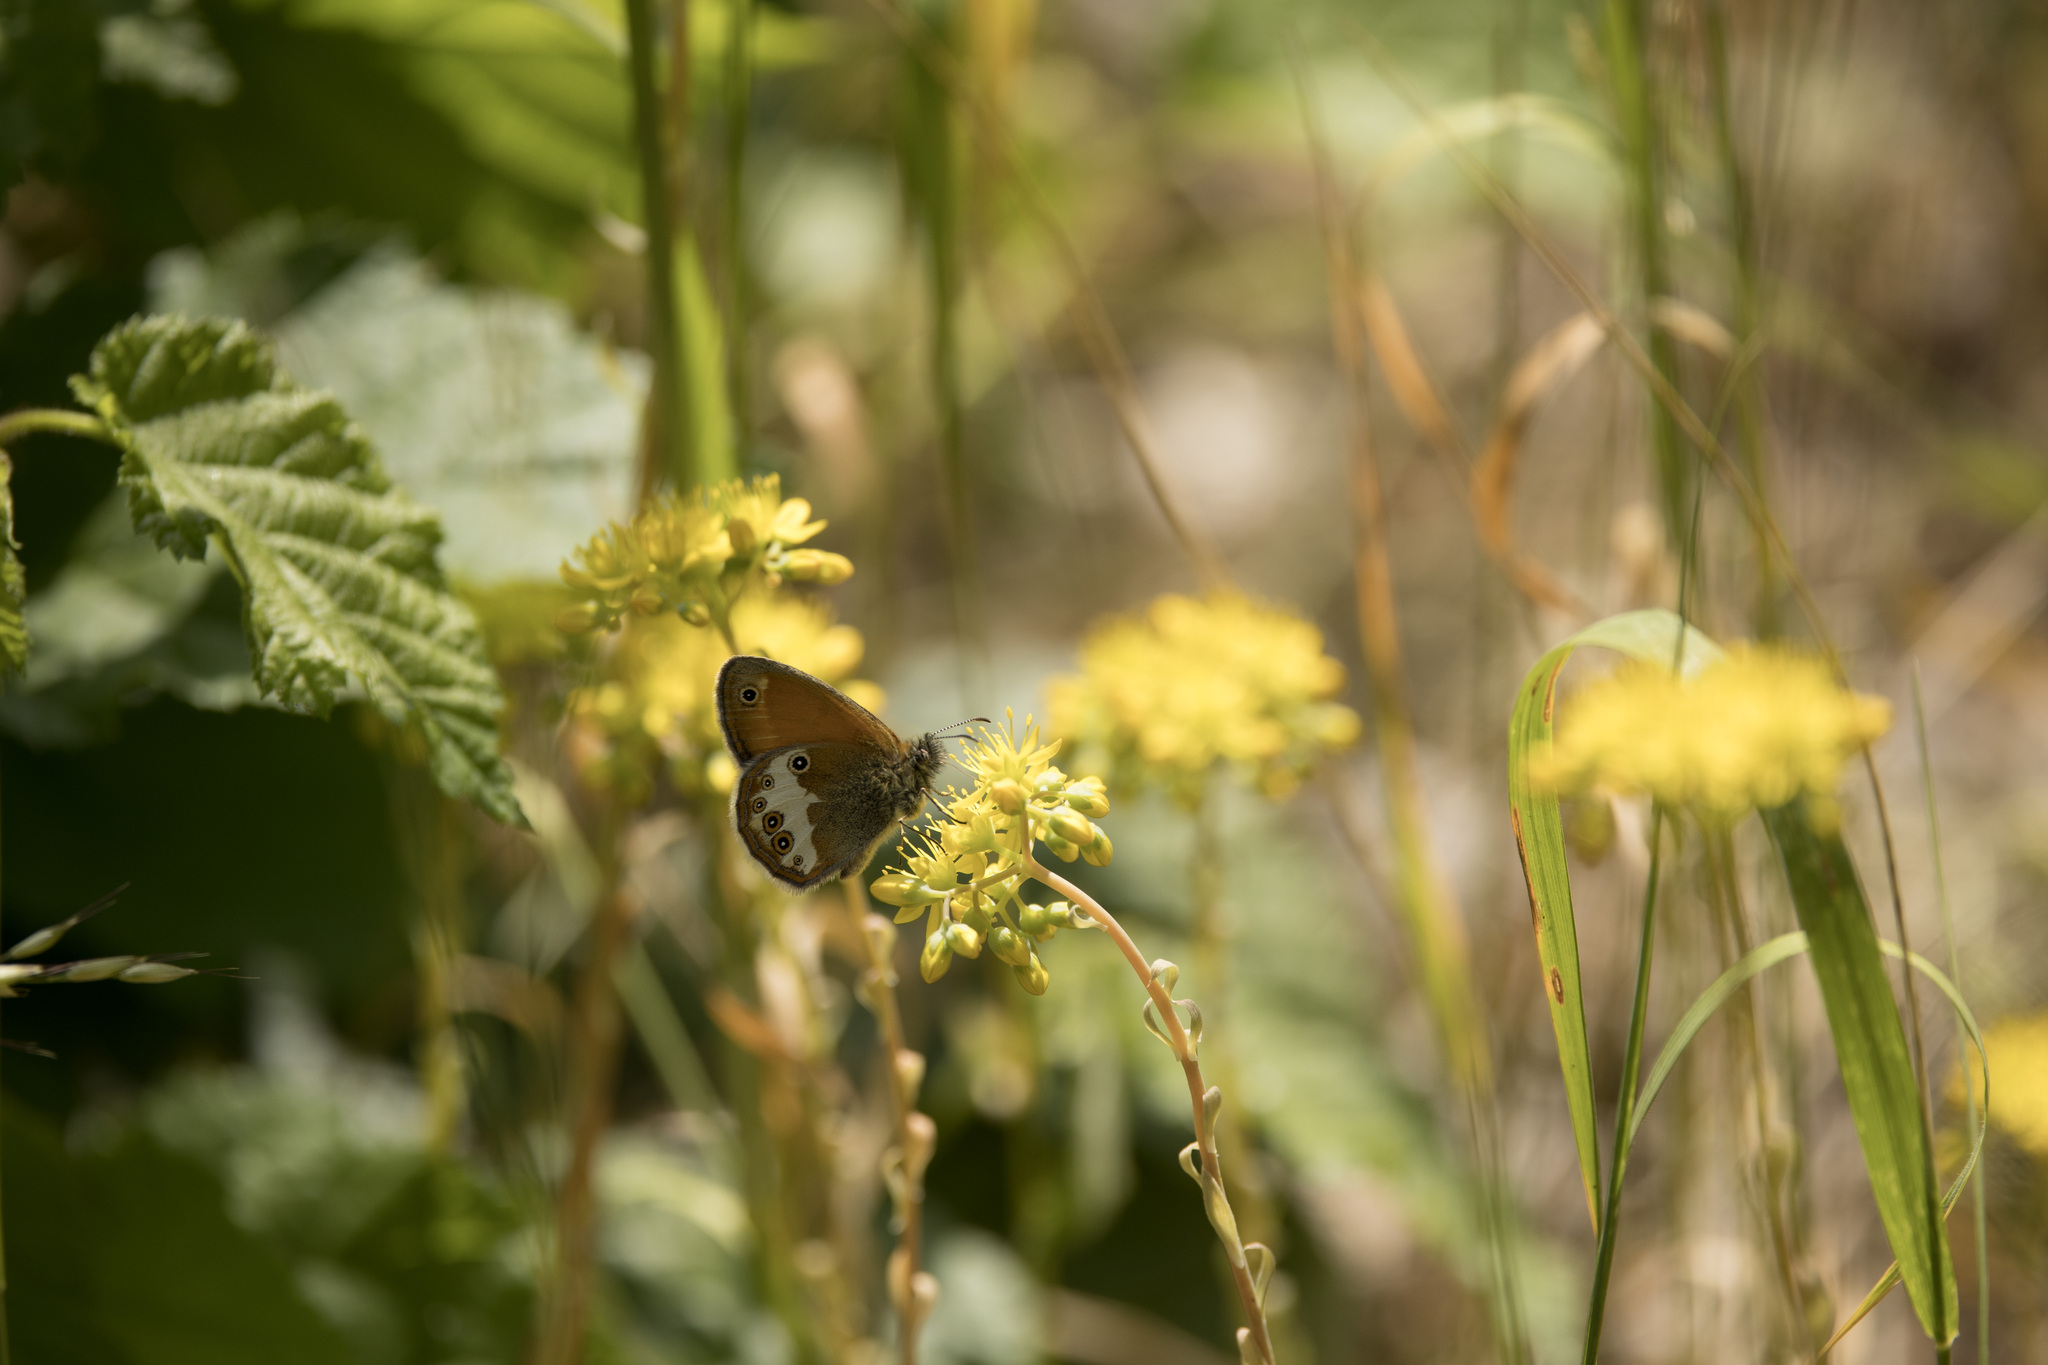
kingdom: Animalia
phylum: Arthropoda
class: Insecta
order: Lepidoptera
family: Nymphalidae
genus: Coenonympha
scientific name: Coenonympha arcania
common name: Pearly heath
